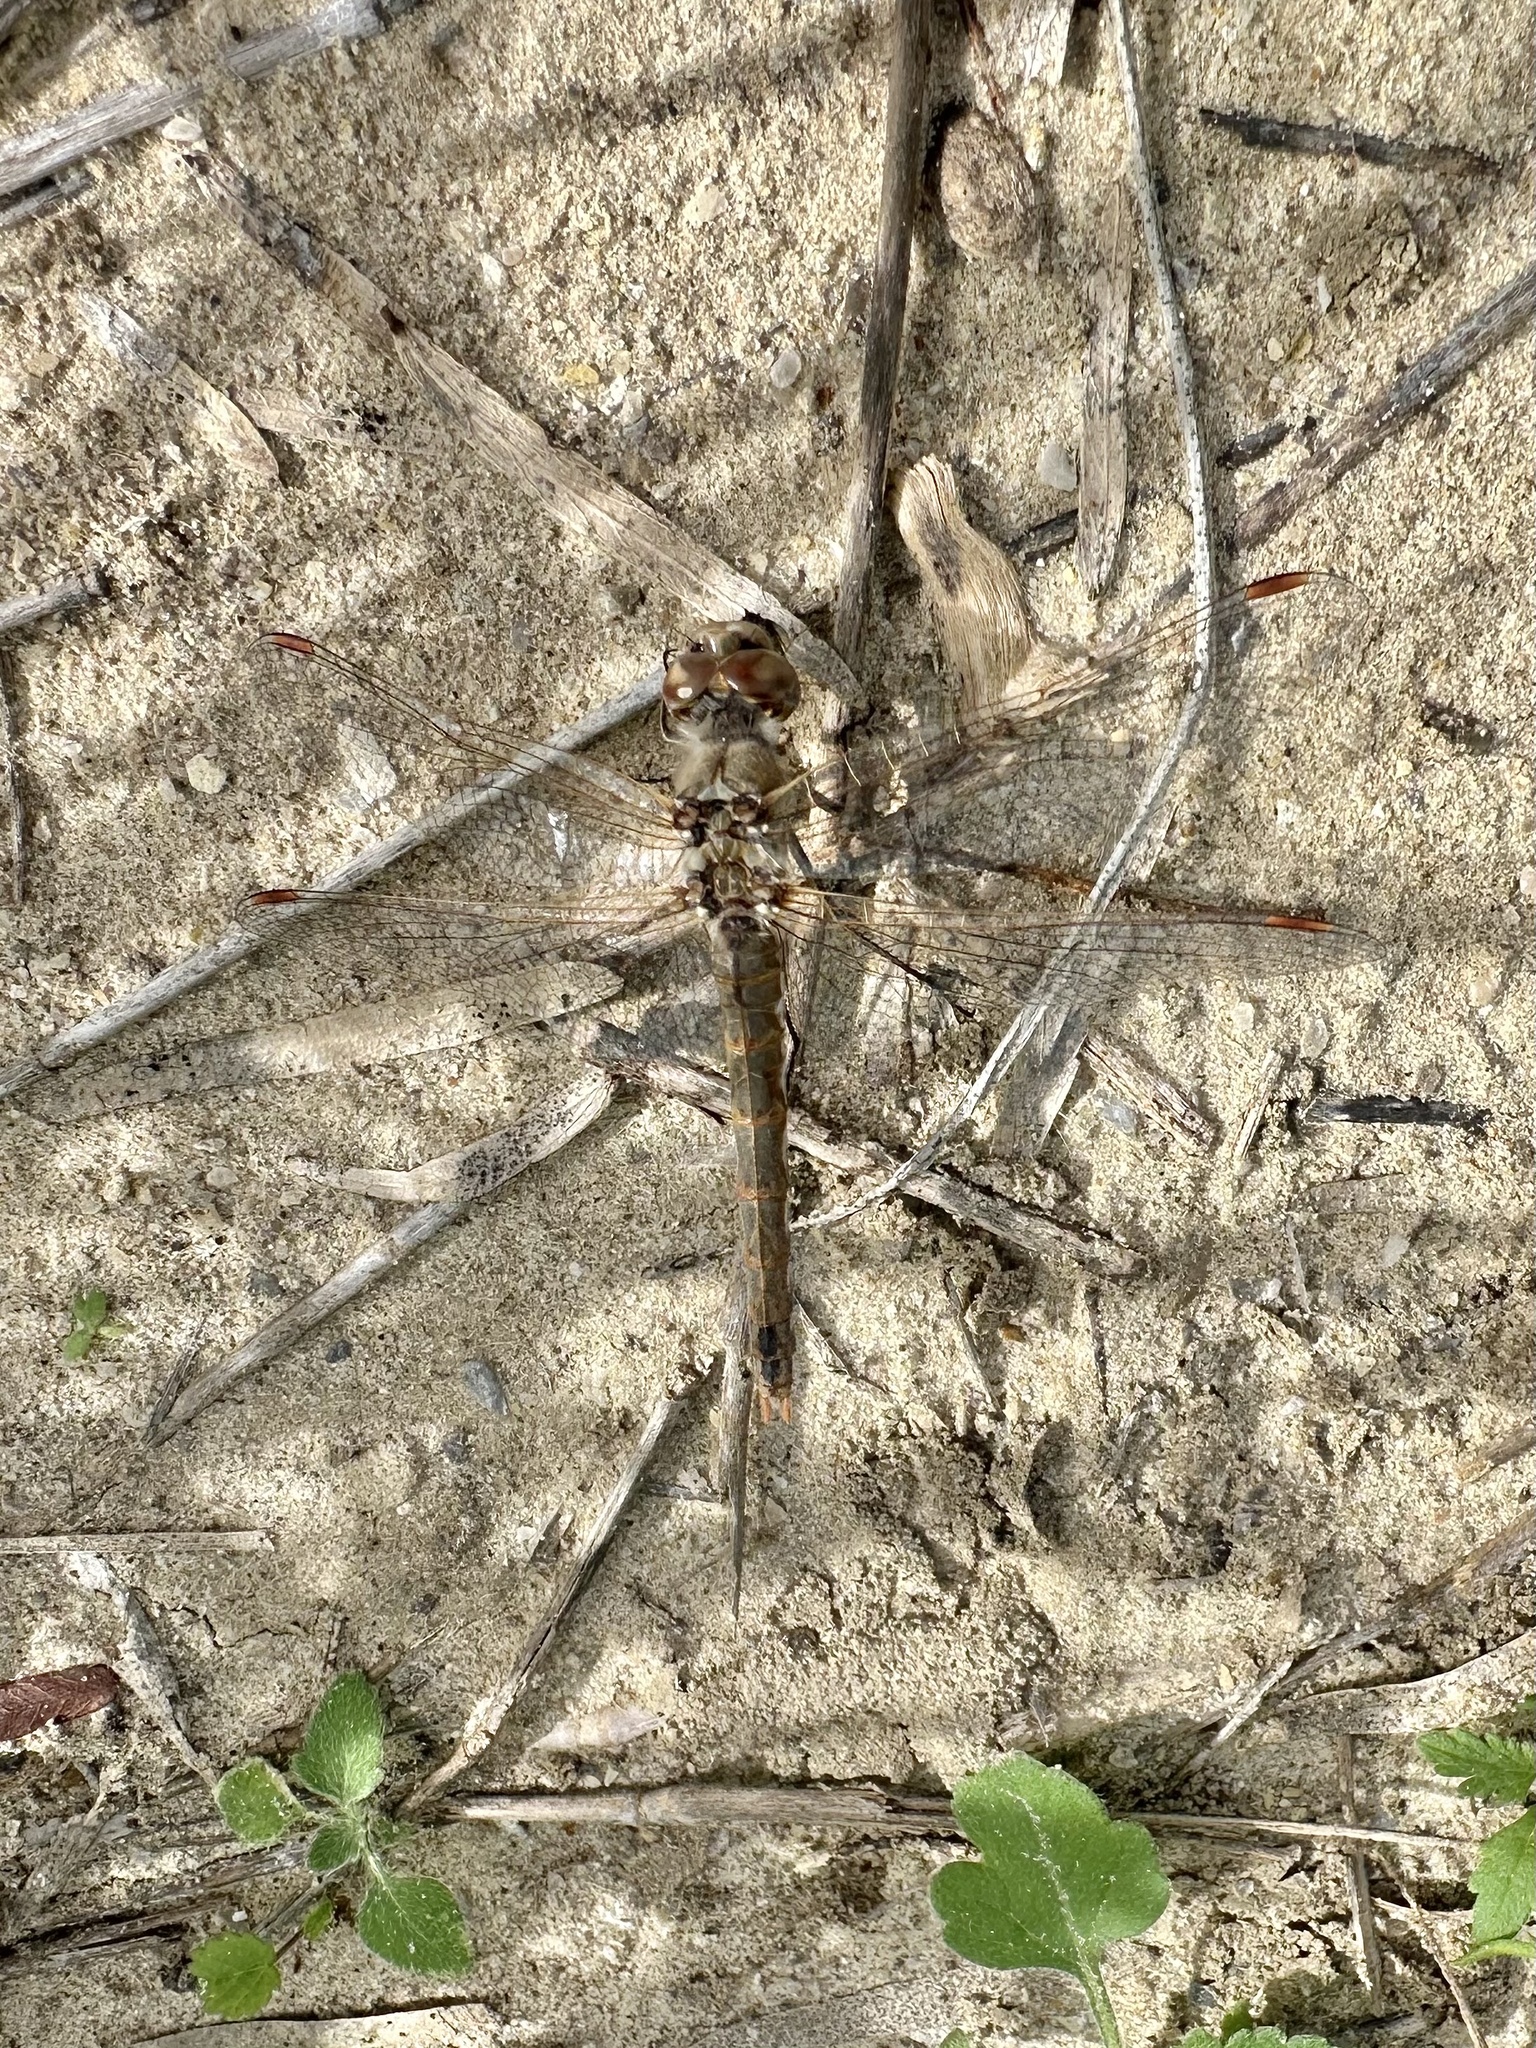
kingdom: Animalia
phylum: Arthropoda
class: Insecta
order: Odonata
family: Libellulidae
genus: Sympetrum
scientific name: Sympetrum corruptum
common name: Variegated meadowhawk
